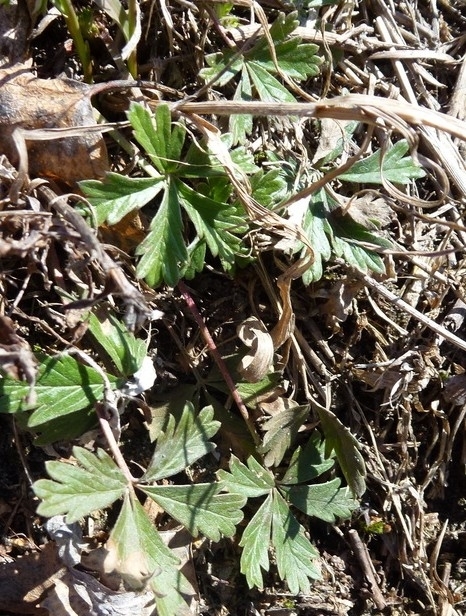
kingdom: Plantae
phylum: Tracheophyta
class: Magnoliopsida
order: Rosales
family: Rosaceae
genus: Potentilla
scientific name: Potentilla argentea
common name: Hoary cinquefoil
